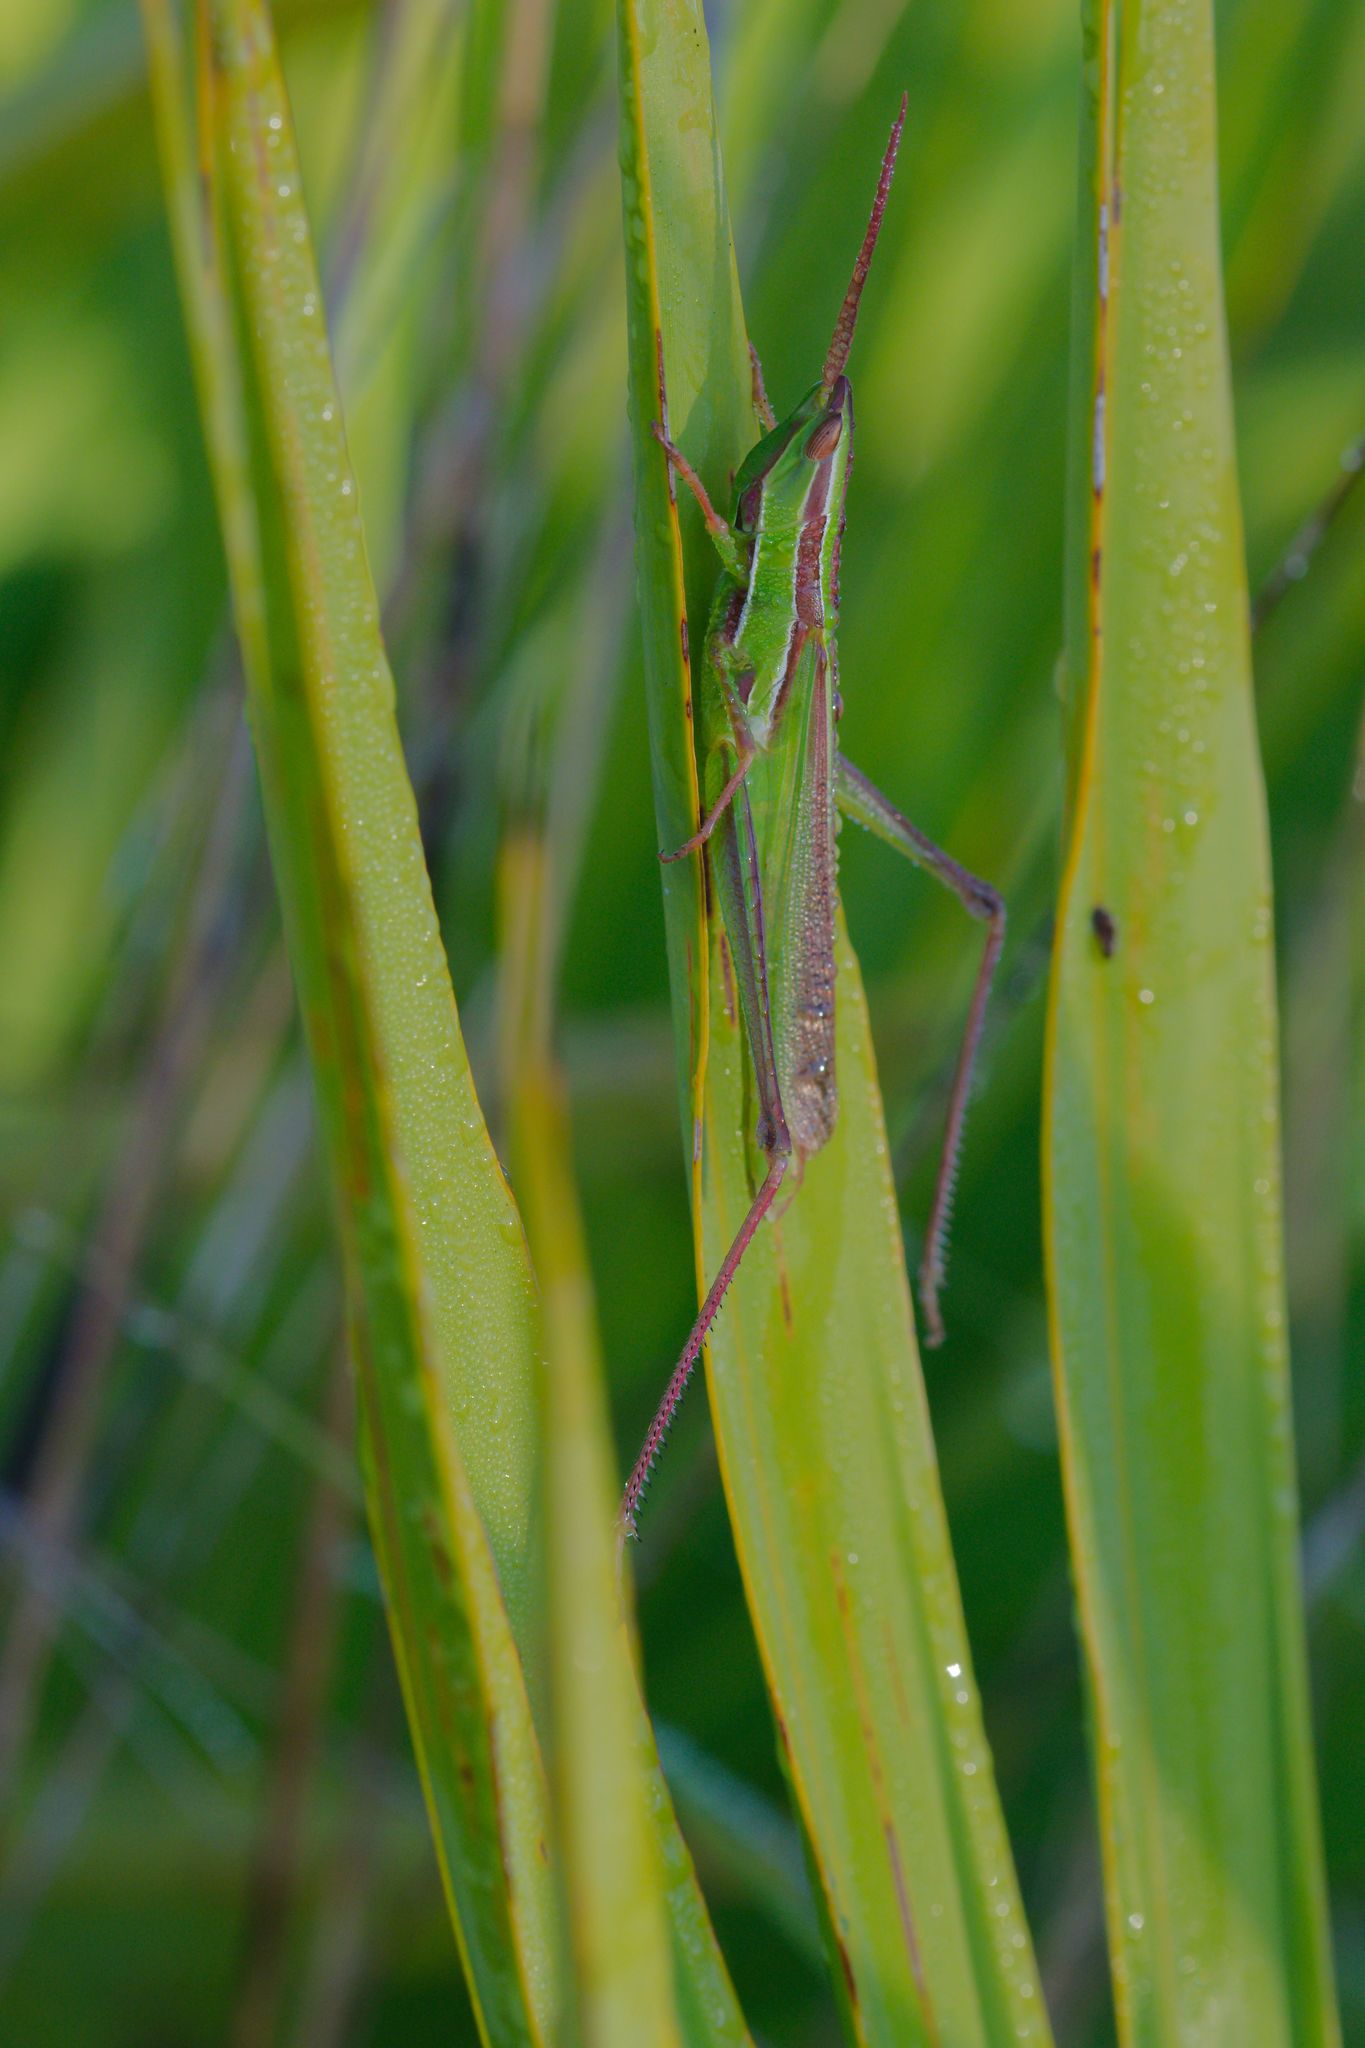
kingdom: Animalia
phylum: Arthropoda
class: Insecta
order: Orthoptera
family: Acrididae
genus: Mermiria
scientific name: Mermiria picta
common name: Lively mermiria grasshopper
